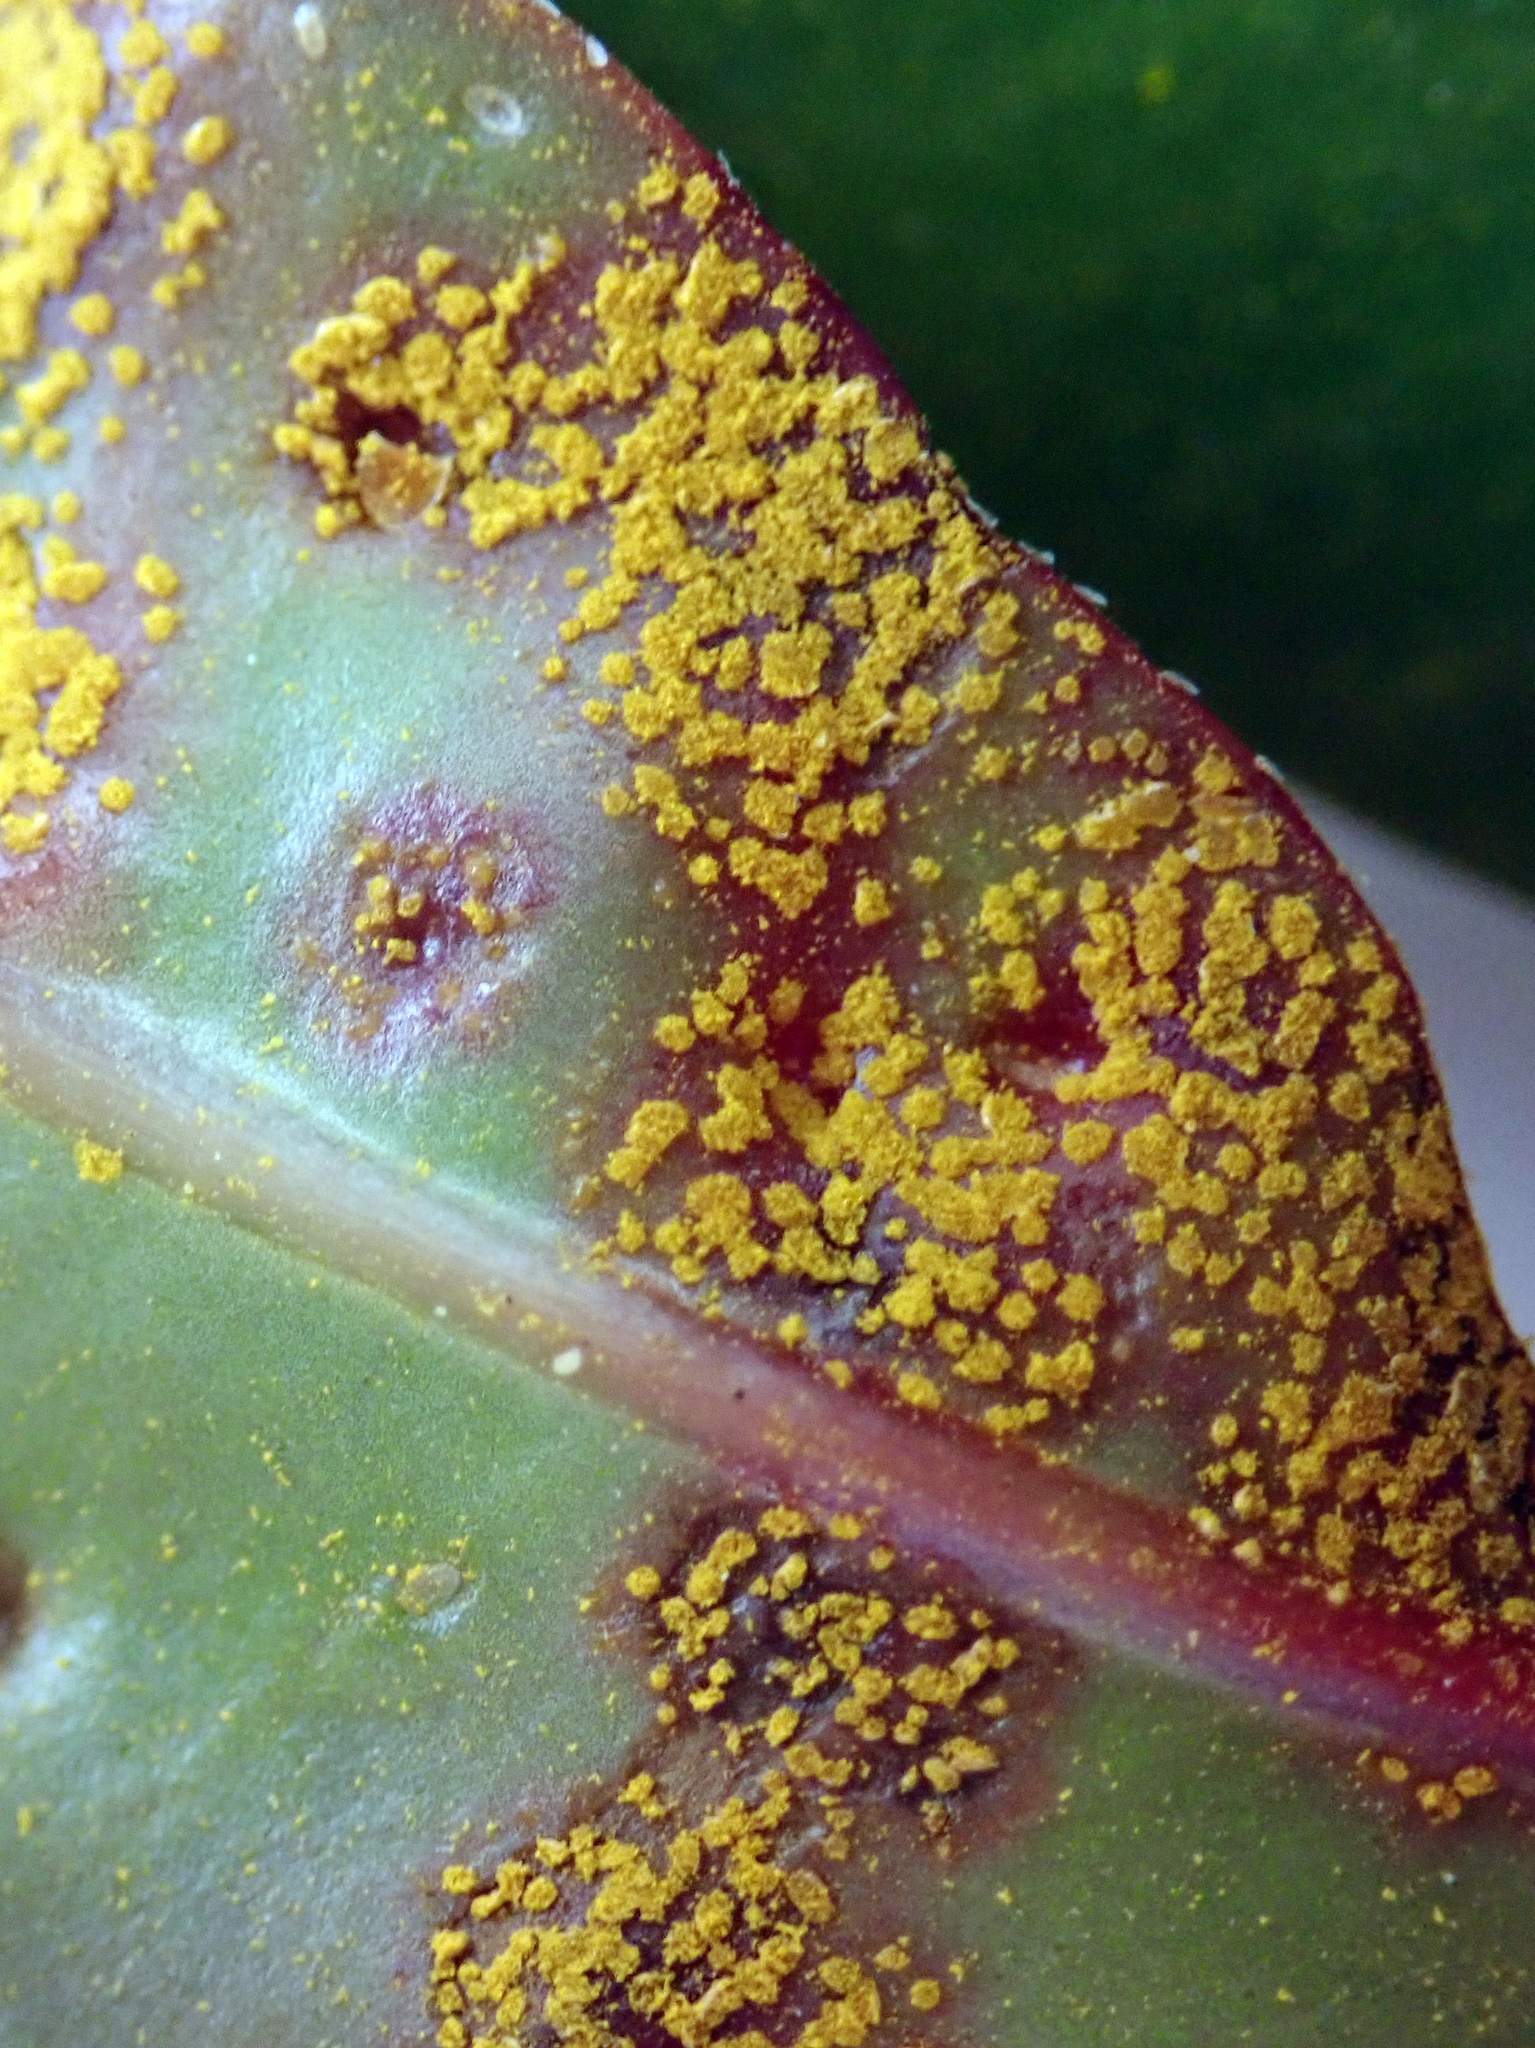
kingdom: Fungi
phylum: Basidiomycota
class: Pucciniomycetes
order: Pucciniales
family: Sphaerophragmiaceae
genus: Austropuccinia
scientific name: Austropuccinia psidii
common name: Myrtle rust
